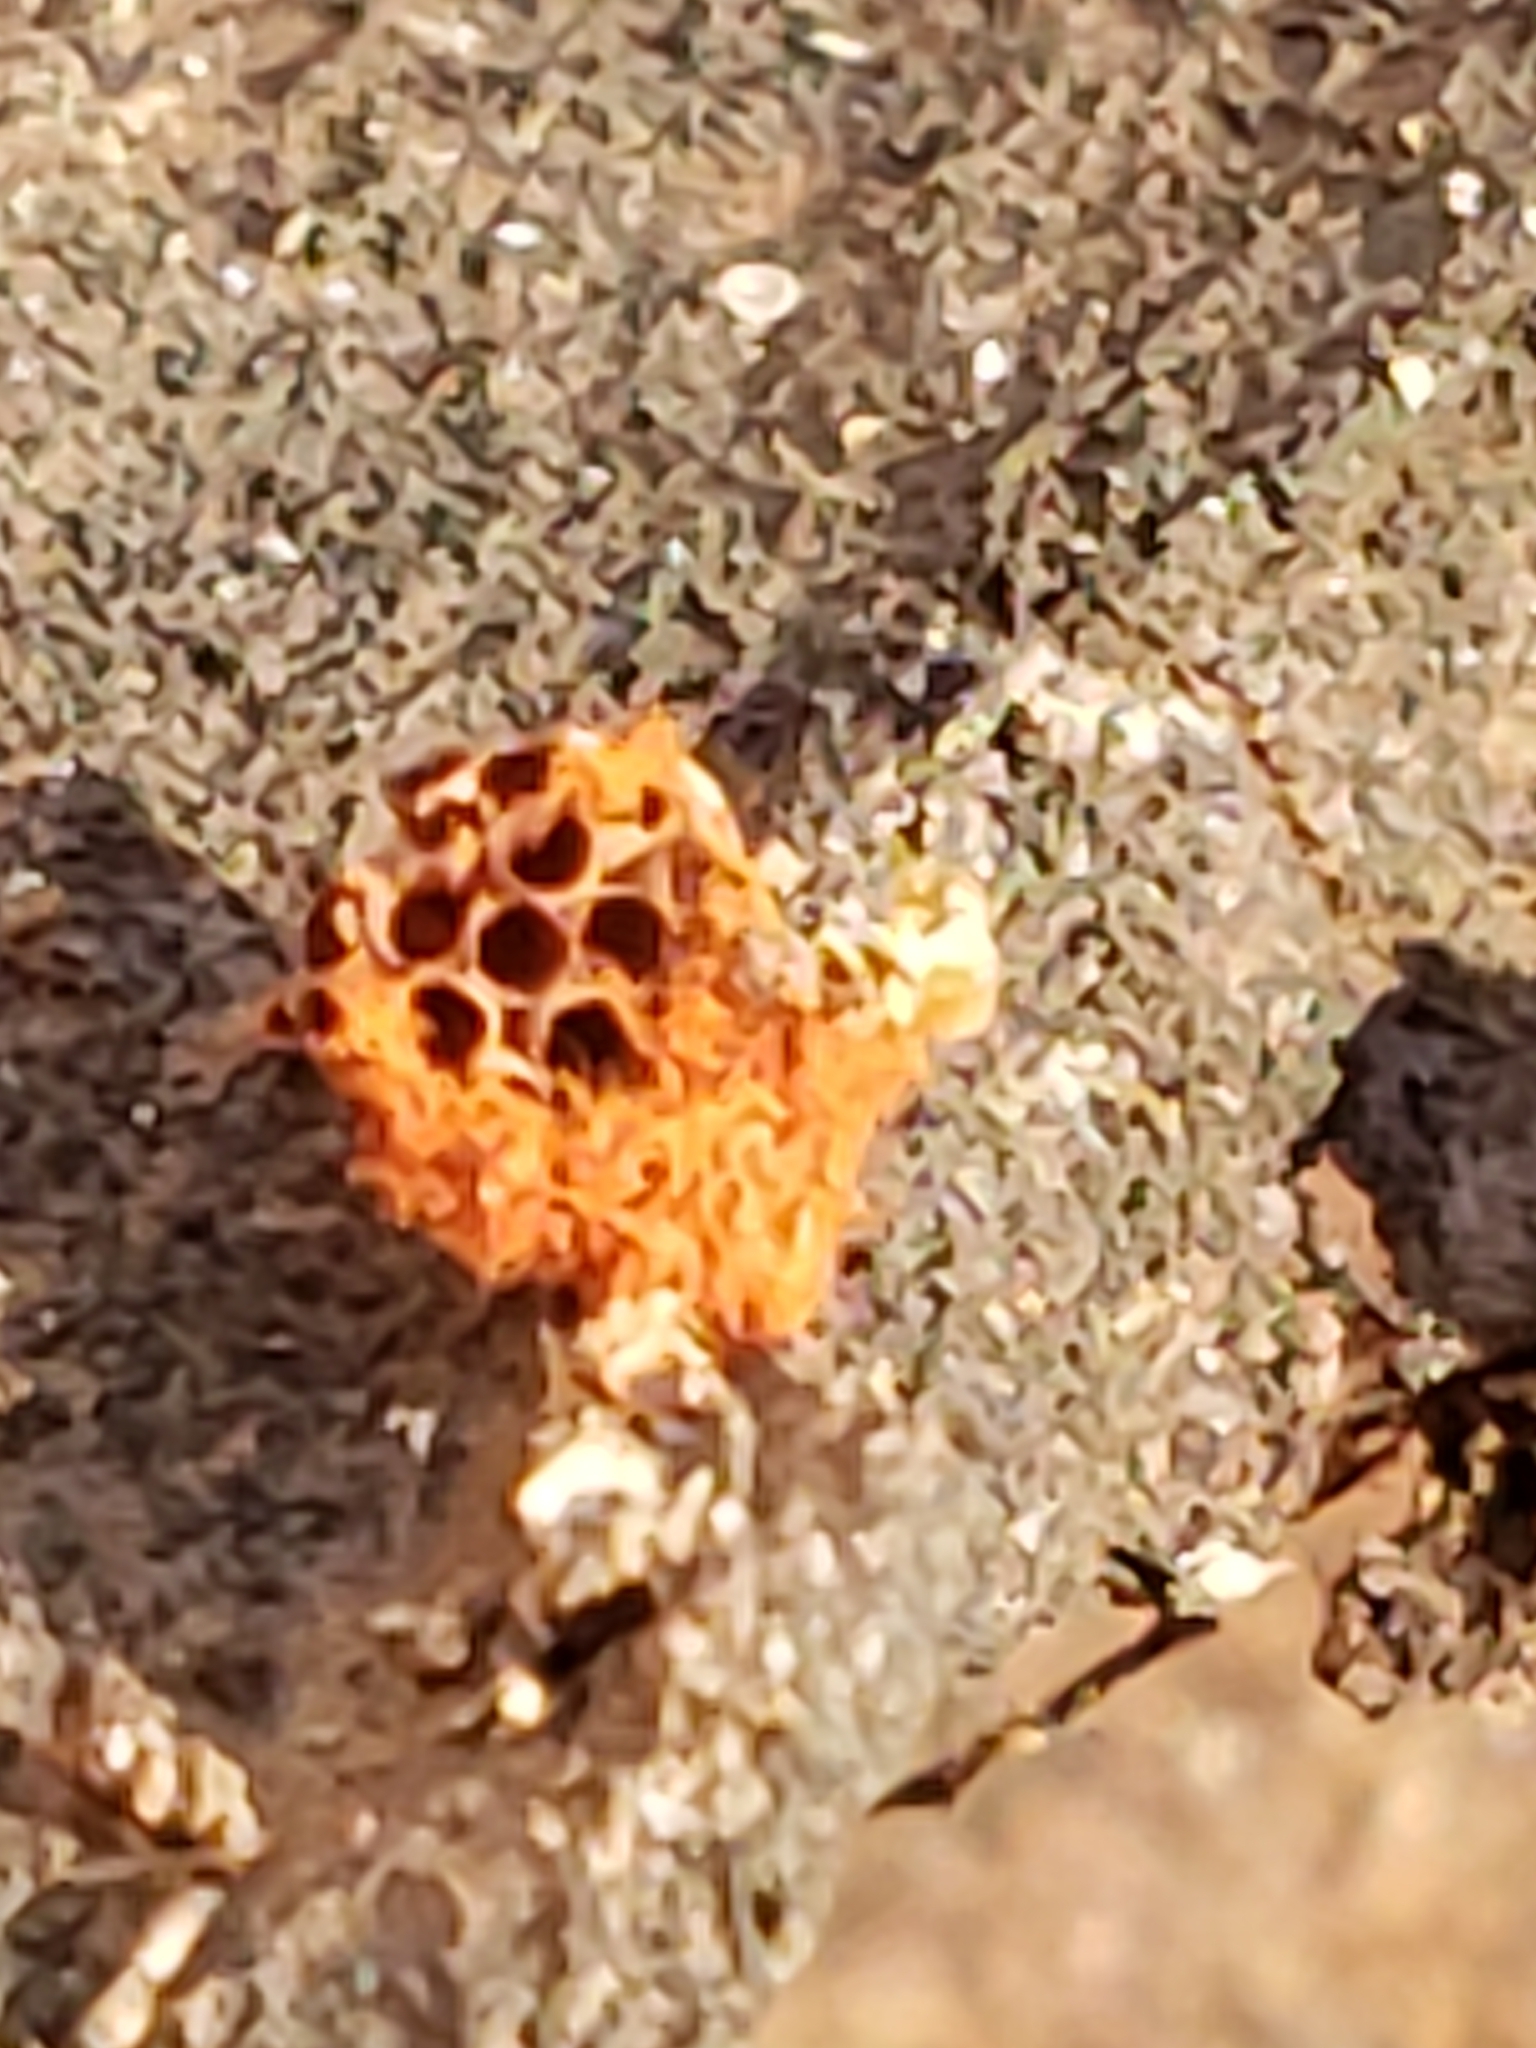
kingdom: Protozoa
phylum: Mycetozoa
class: Myxomycetes
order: Trichiales
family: Trichiaceae
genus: Metatrichia
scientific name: Metatrichia vesparia
